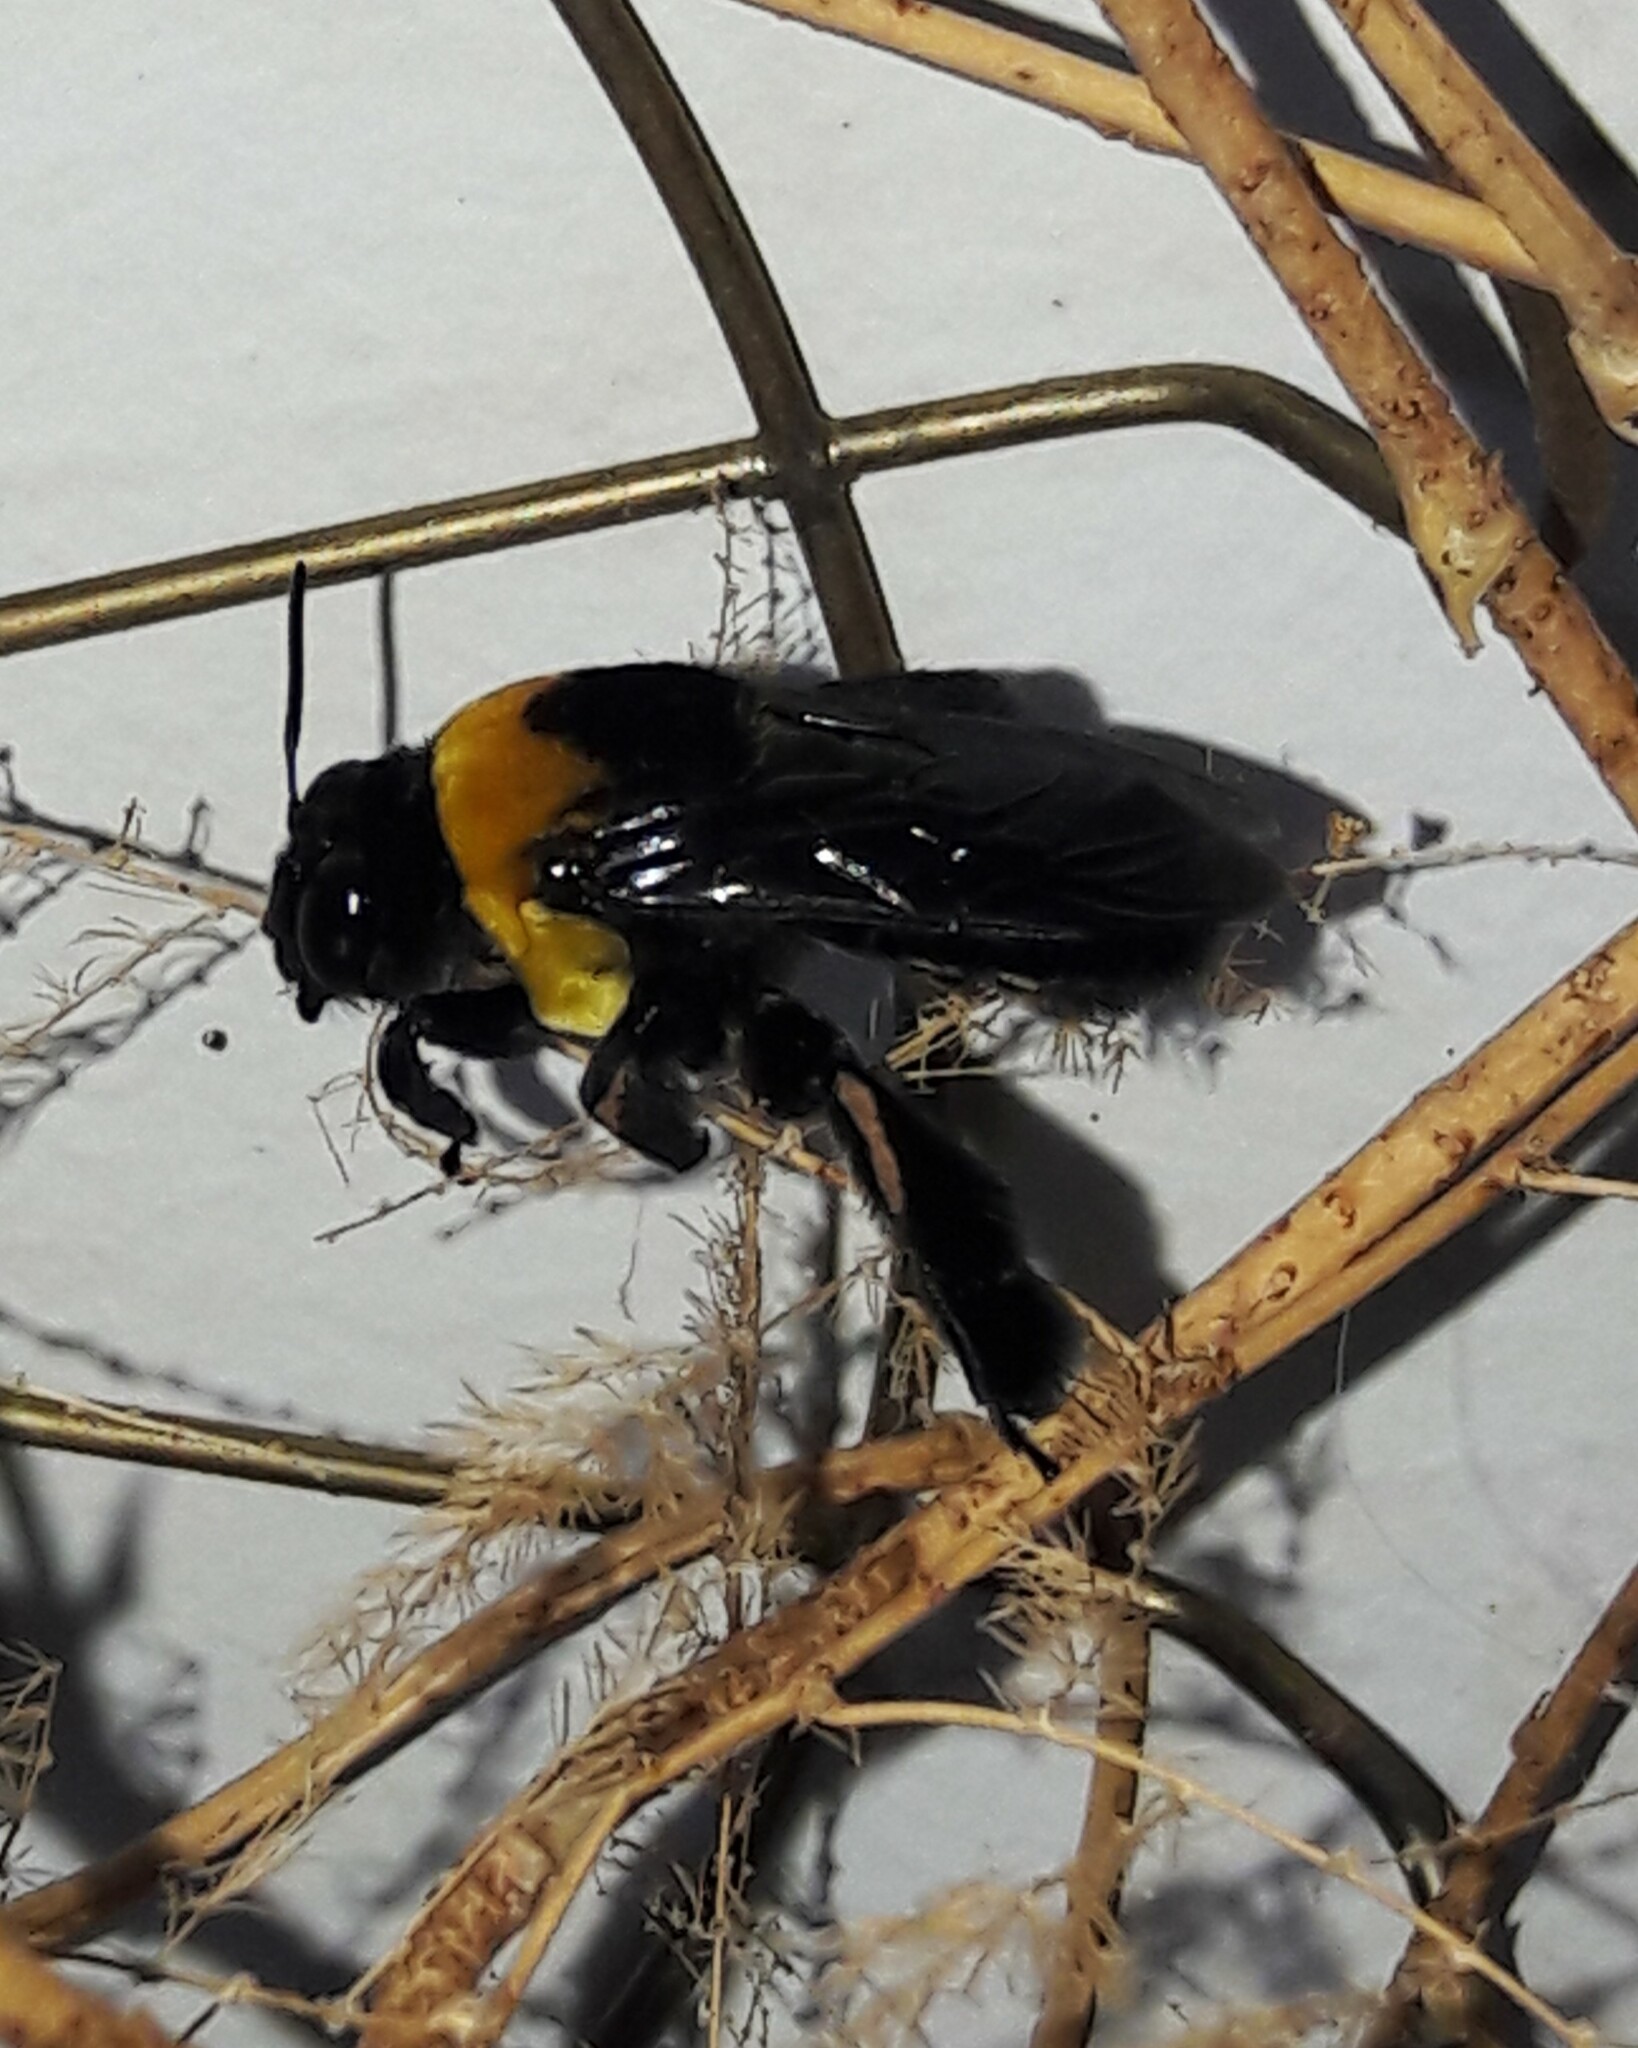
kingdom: Animalia
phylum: Arthropoda
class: Insecta
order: Hymenoptera
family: Apidae
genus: Centris
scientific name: Centris scopipes
